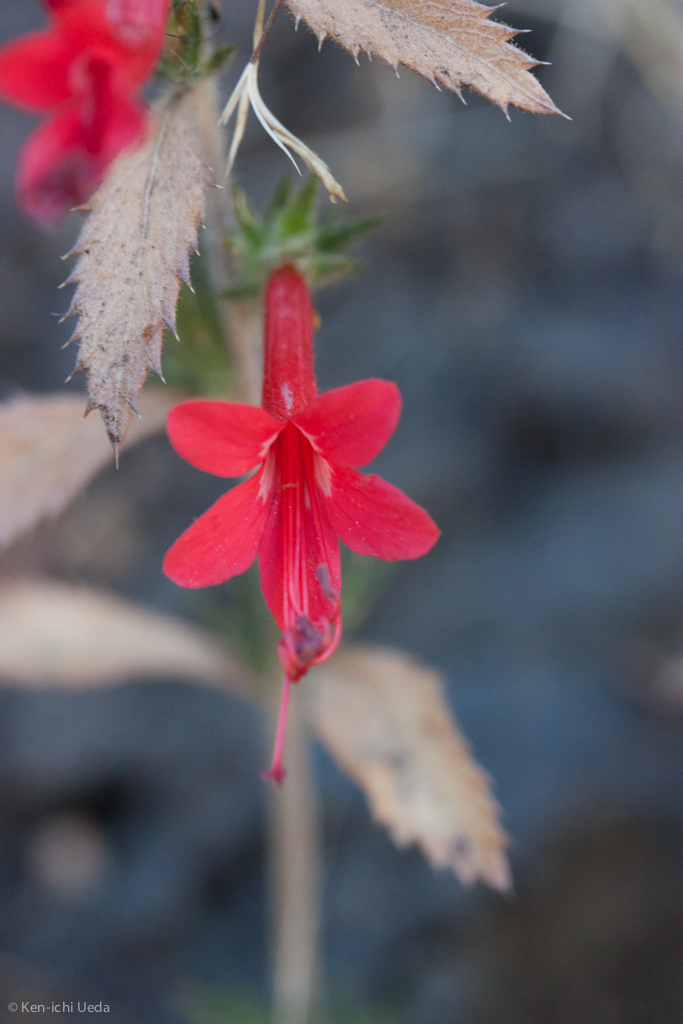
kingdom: Plantae
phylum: Tracheophyta
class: Magnoliopsida
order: Ericales
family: Polemoniaceae
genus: Loeselia
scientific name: Loeselia mexicana
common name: Mexican false calico
